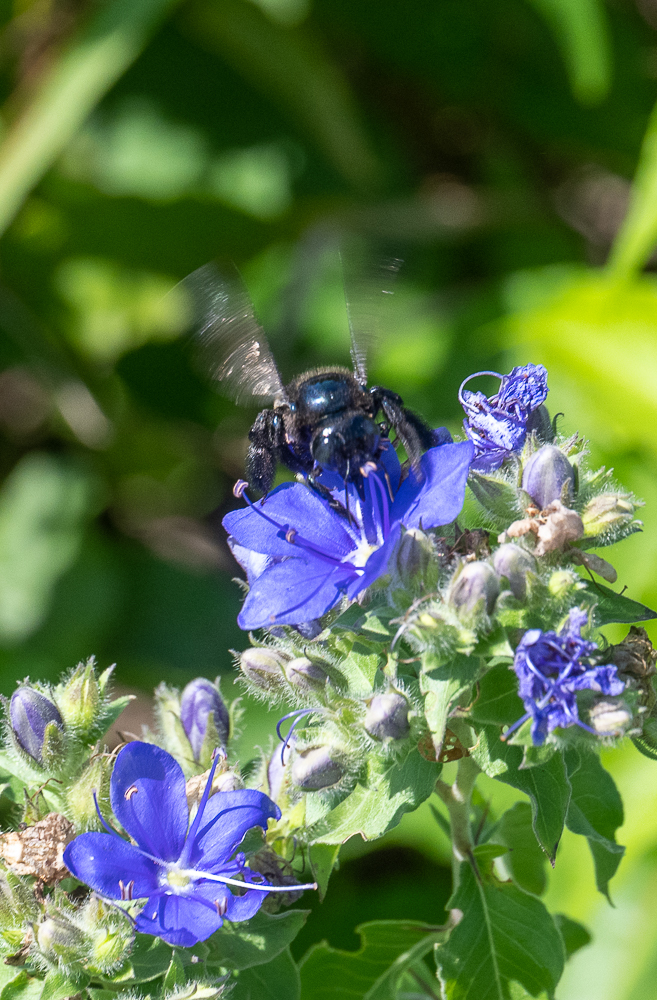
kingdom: Animalia
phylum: Arthropoda
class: Insecta
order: Hymenoptera
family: Apidae
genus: Xylocopa
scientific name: Xylocopa micans
